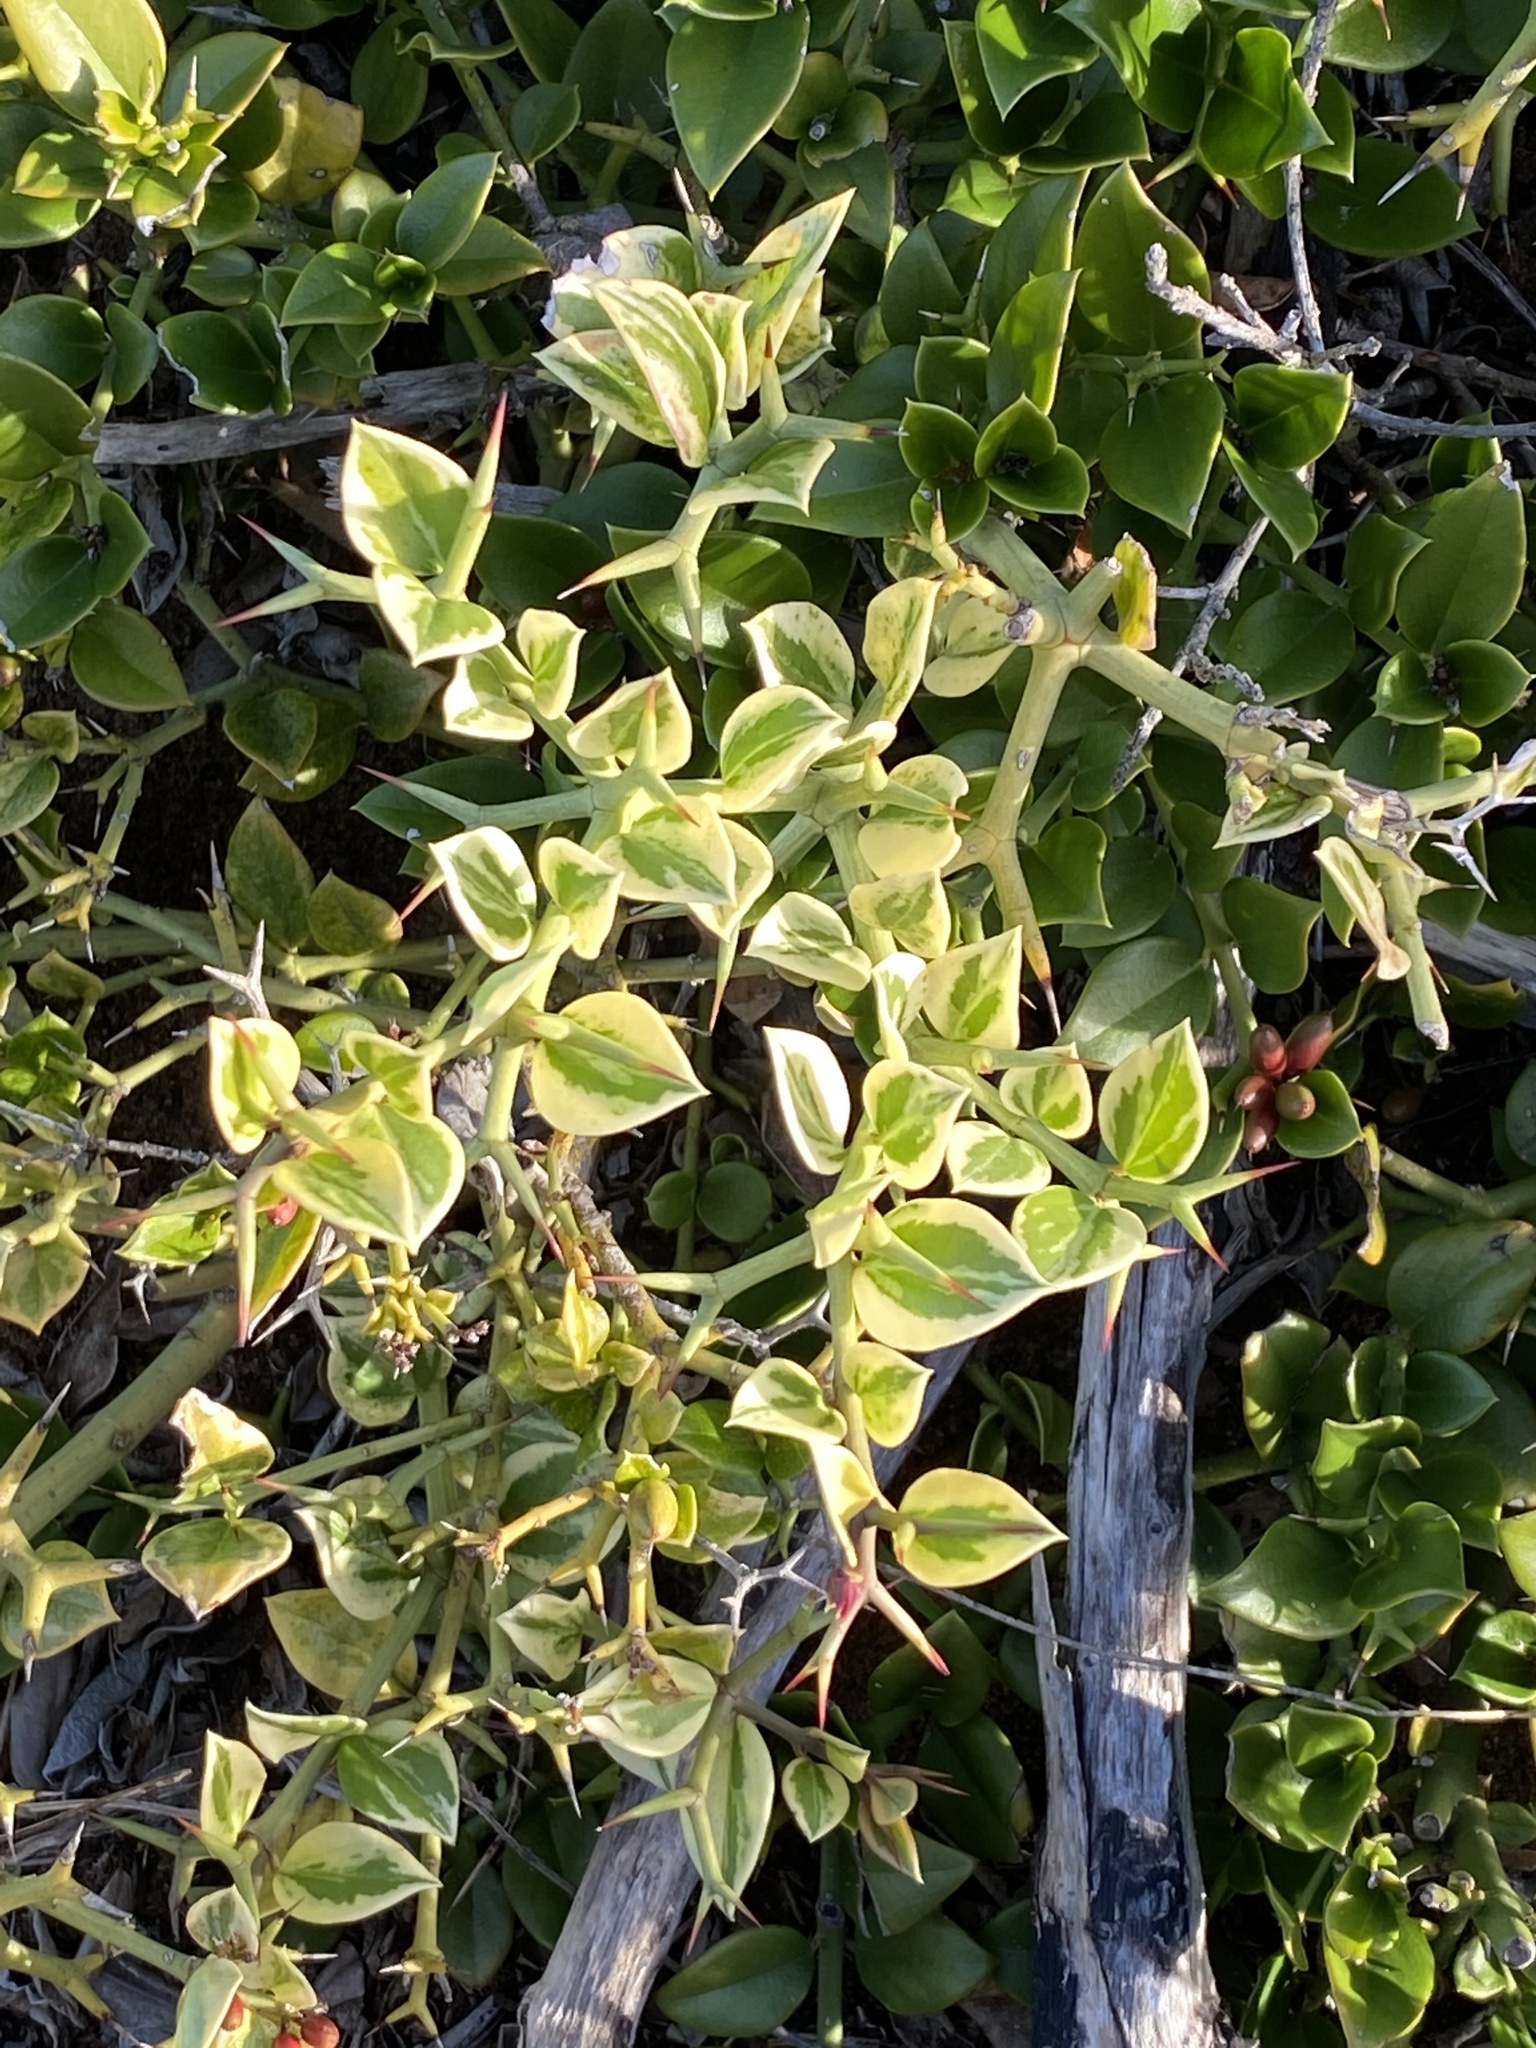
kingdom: Plantae
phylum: Tracheophyta
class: Magnoliopsida
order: Gentianales
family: Apocynaceae
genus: Carissa
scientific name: Carissa bispinosa
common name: Forest num-num
